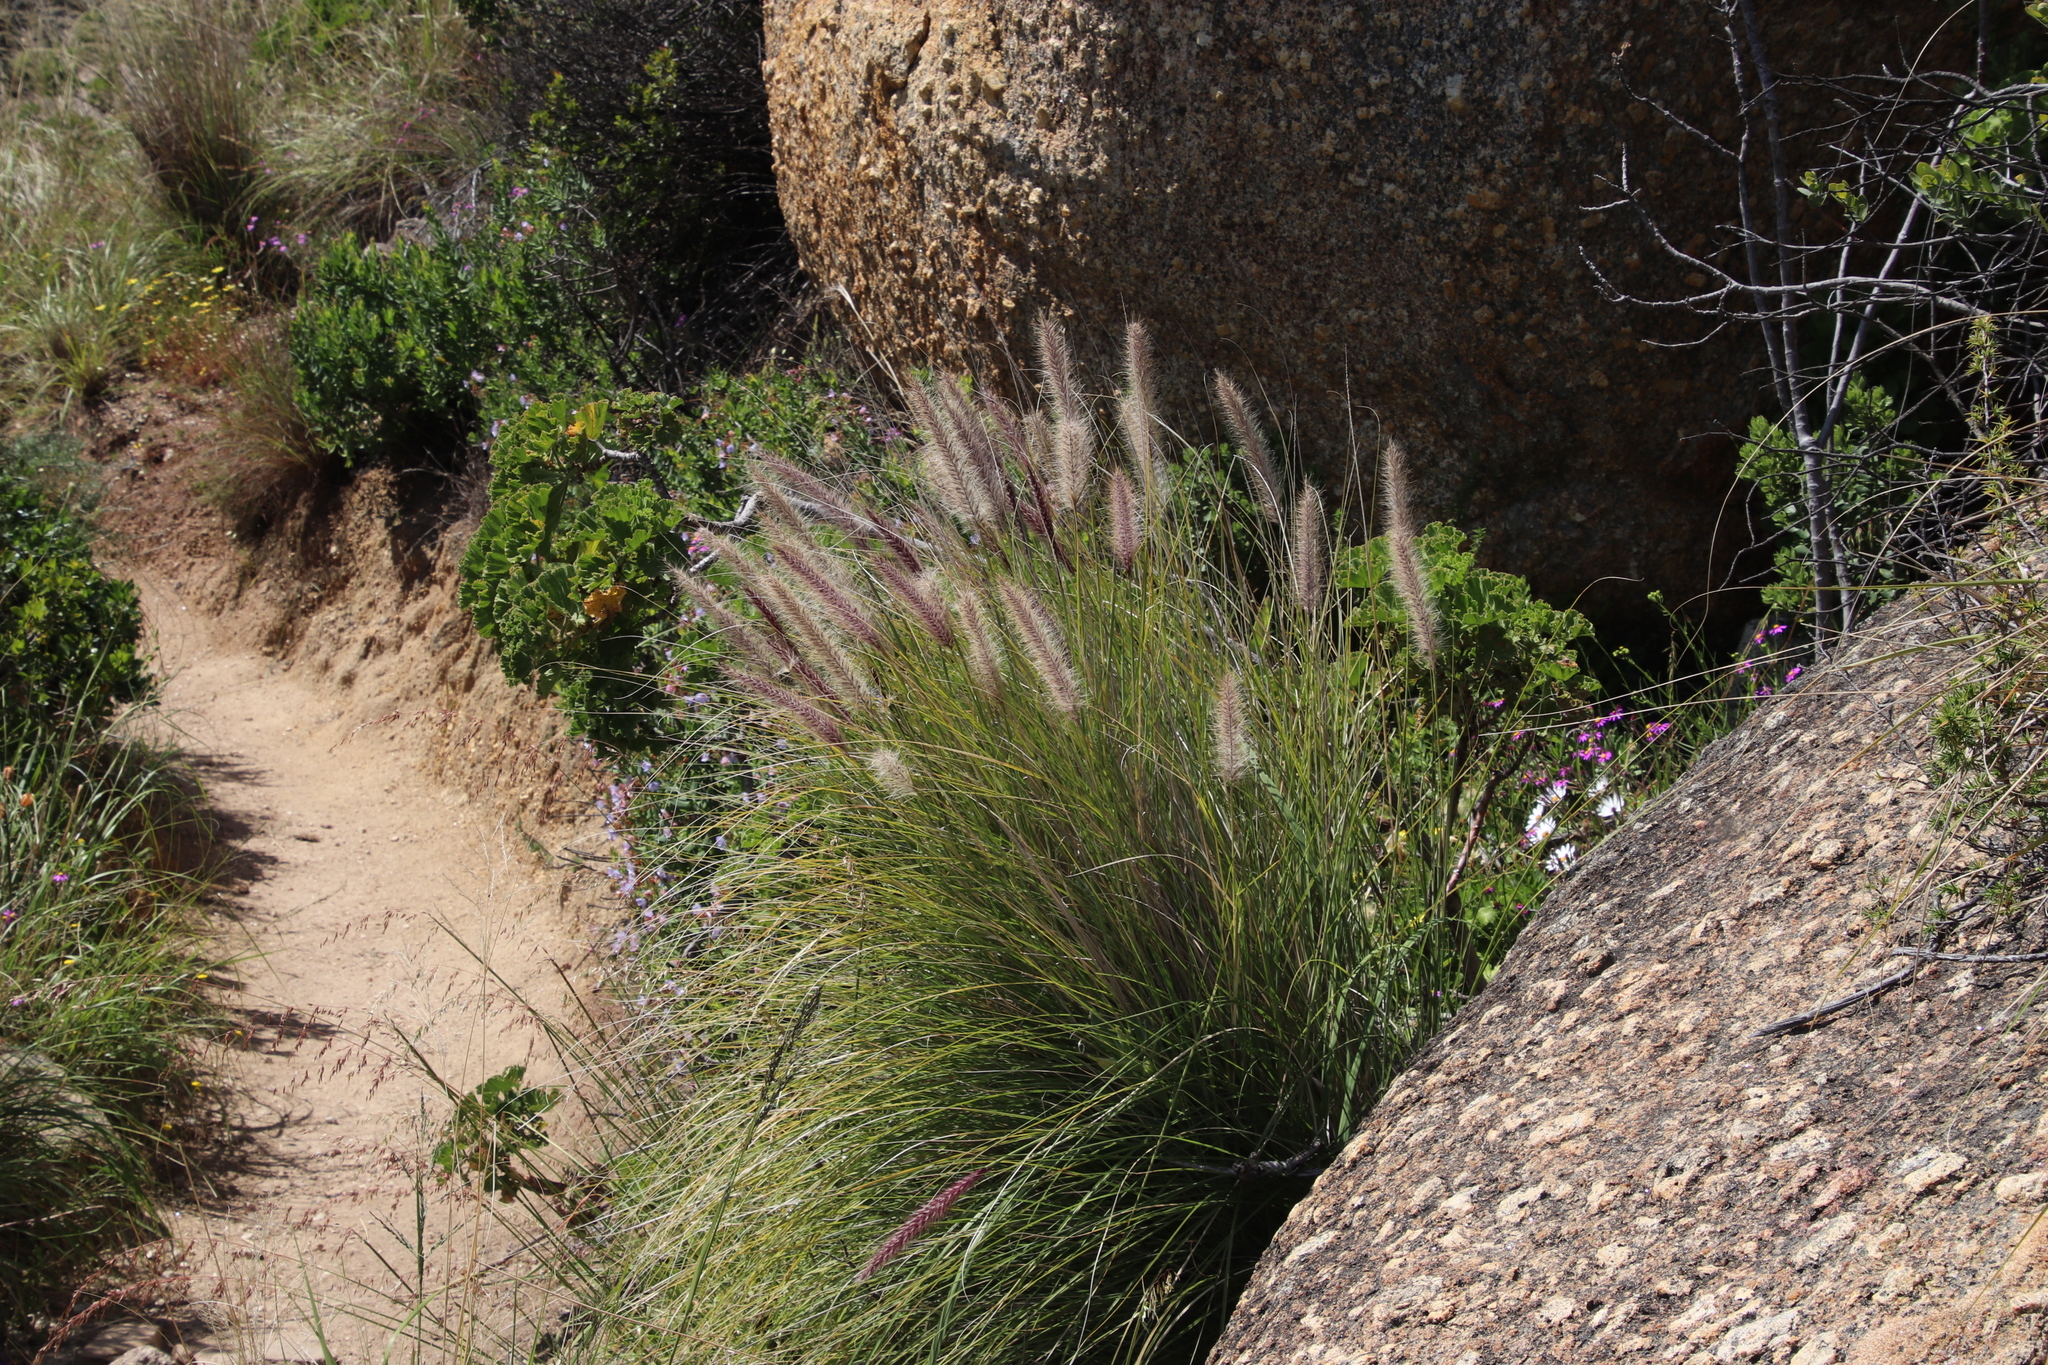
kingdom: Plantae
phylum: Tracheophyta
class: Liliopsida
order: Poales
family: Poaceae
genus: Cenchrus
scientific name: Cenchrus setaceus
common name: Crimson fountaingrass
